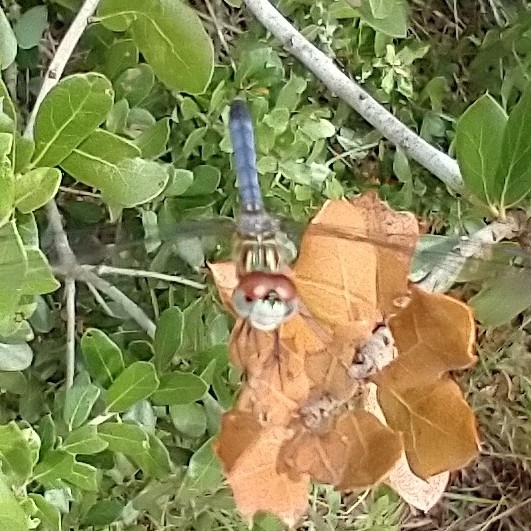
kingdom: Animalia
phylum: Arthropoda
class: Insecta
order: Odonata
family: Libellulidae
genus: Pachydiplax
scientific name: Pachydiplax longipennis
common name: Blue dasher
